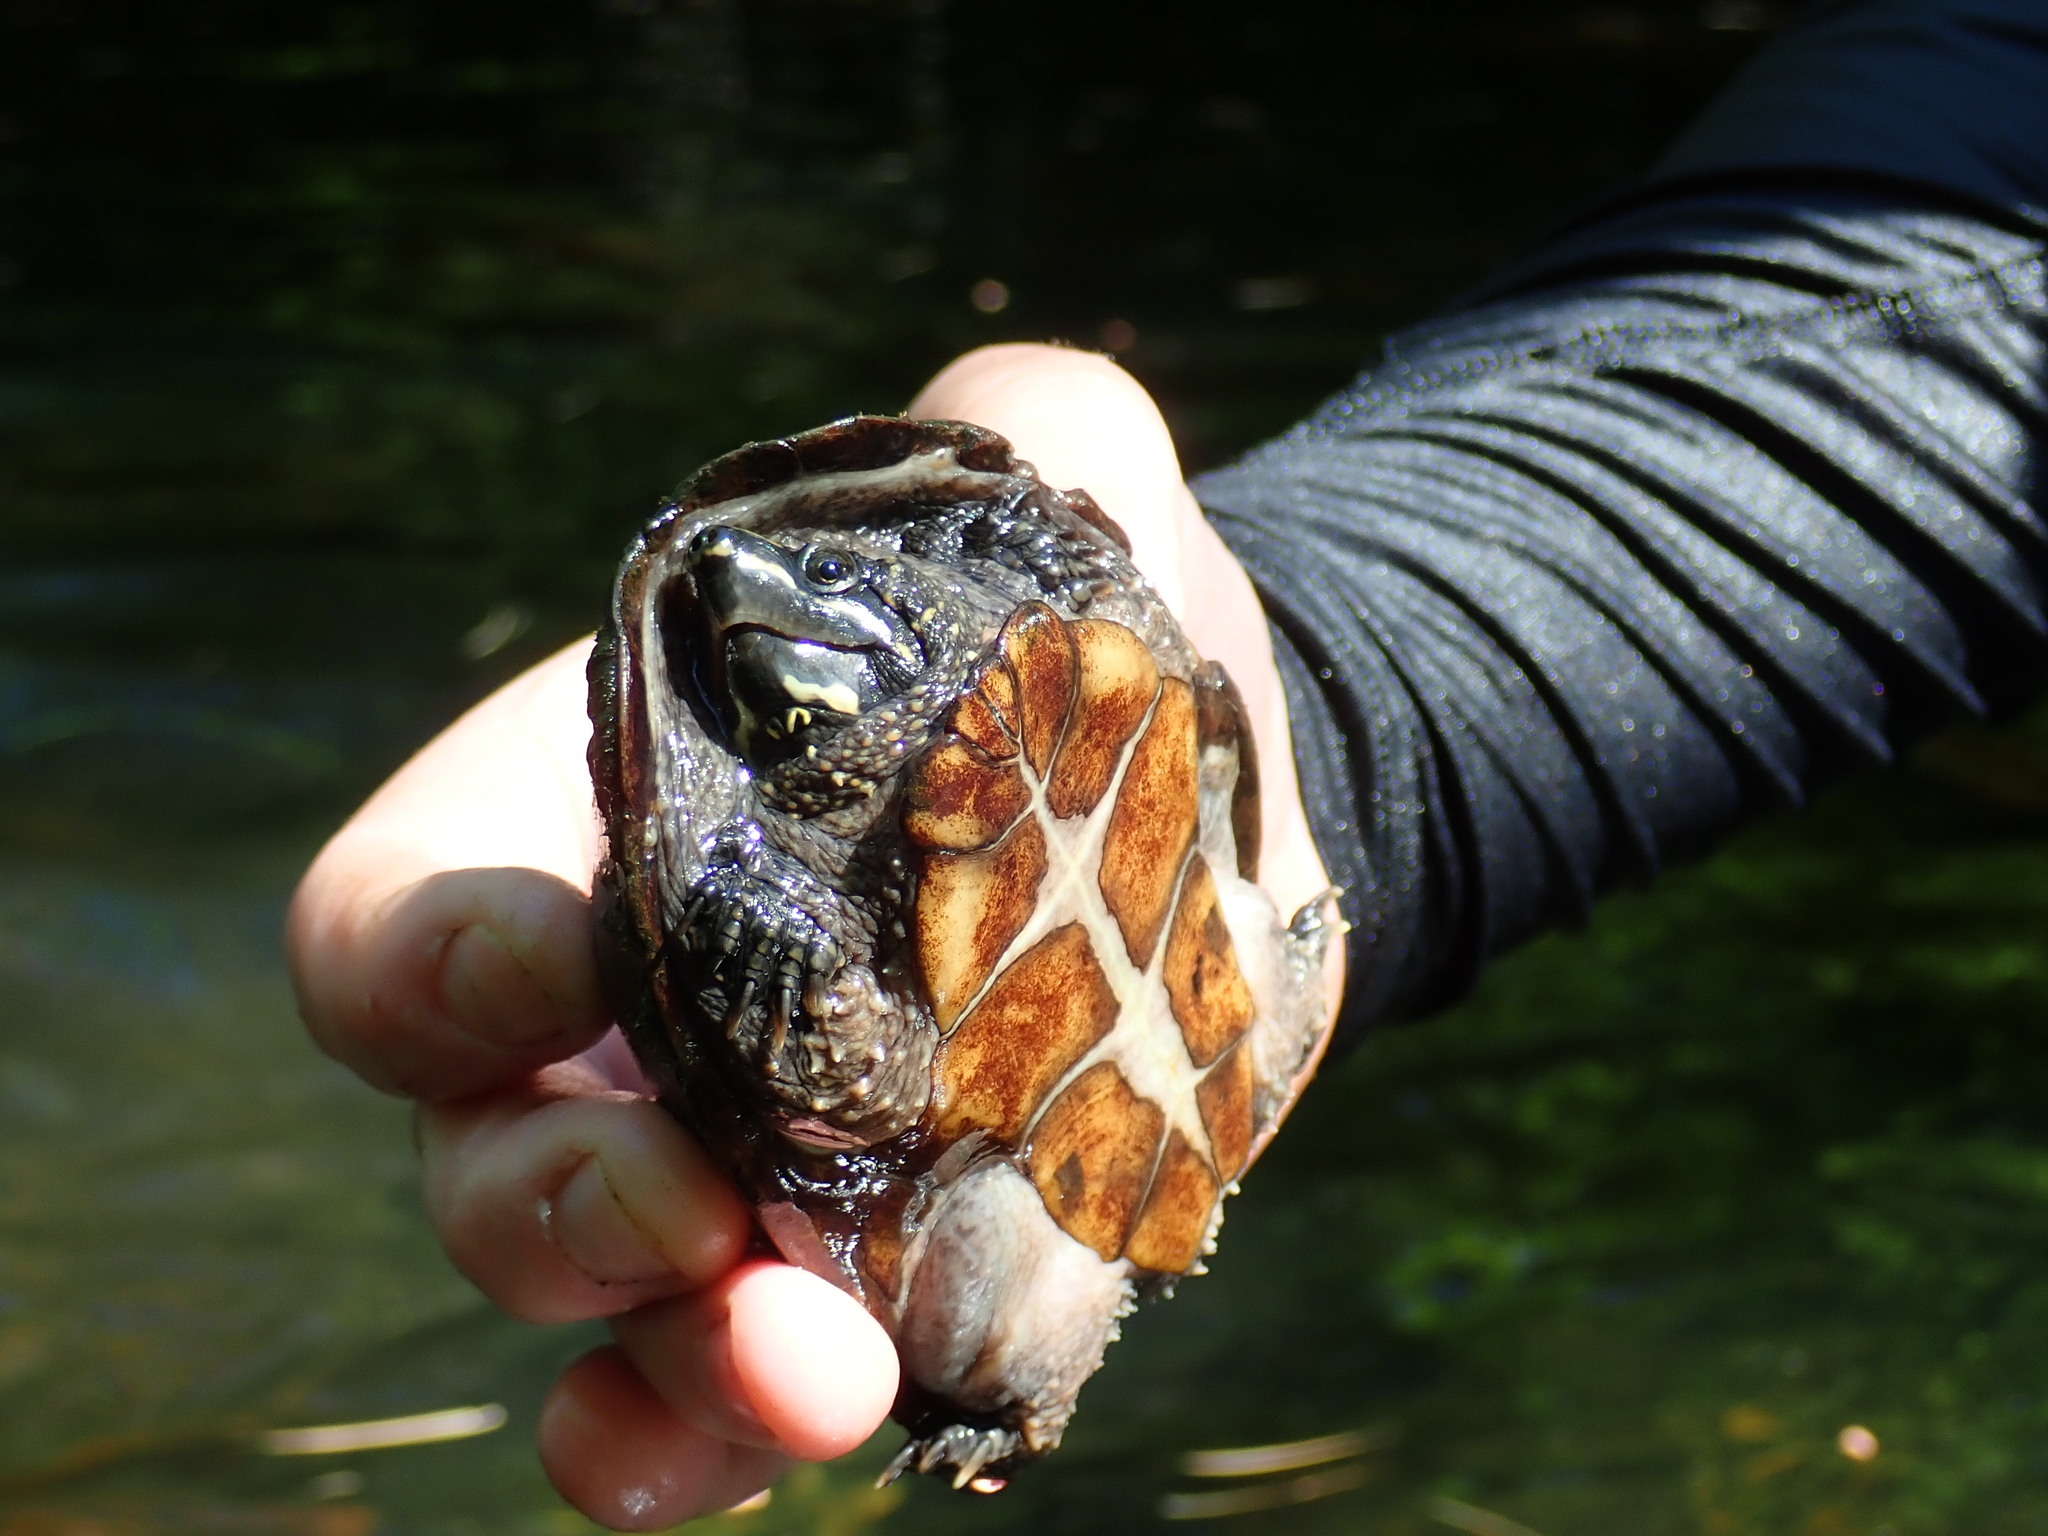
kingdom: Animalia
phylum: Chordata
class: Testudines
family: Kinosternidae
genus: Sternotherus
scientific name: Sternotherus odoratus
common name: Common musk turtle
